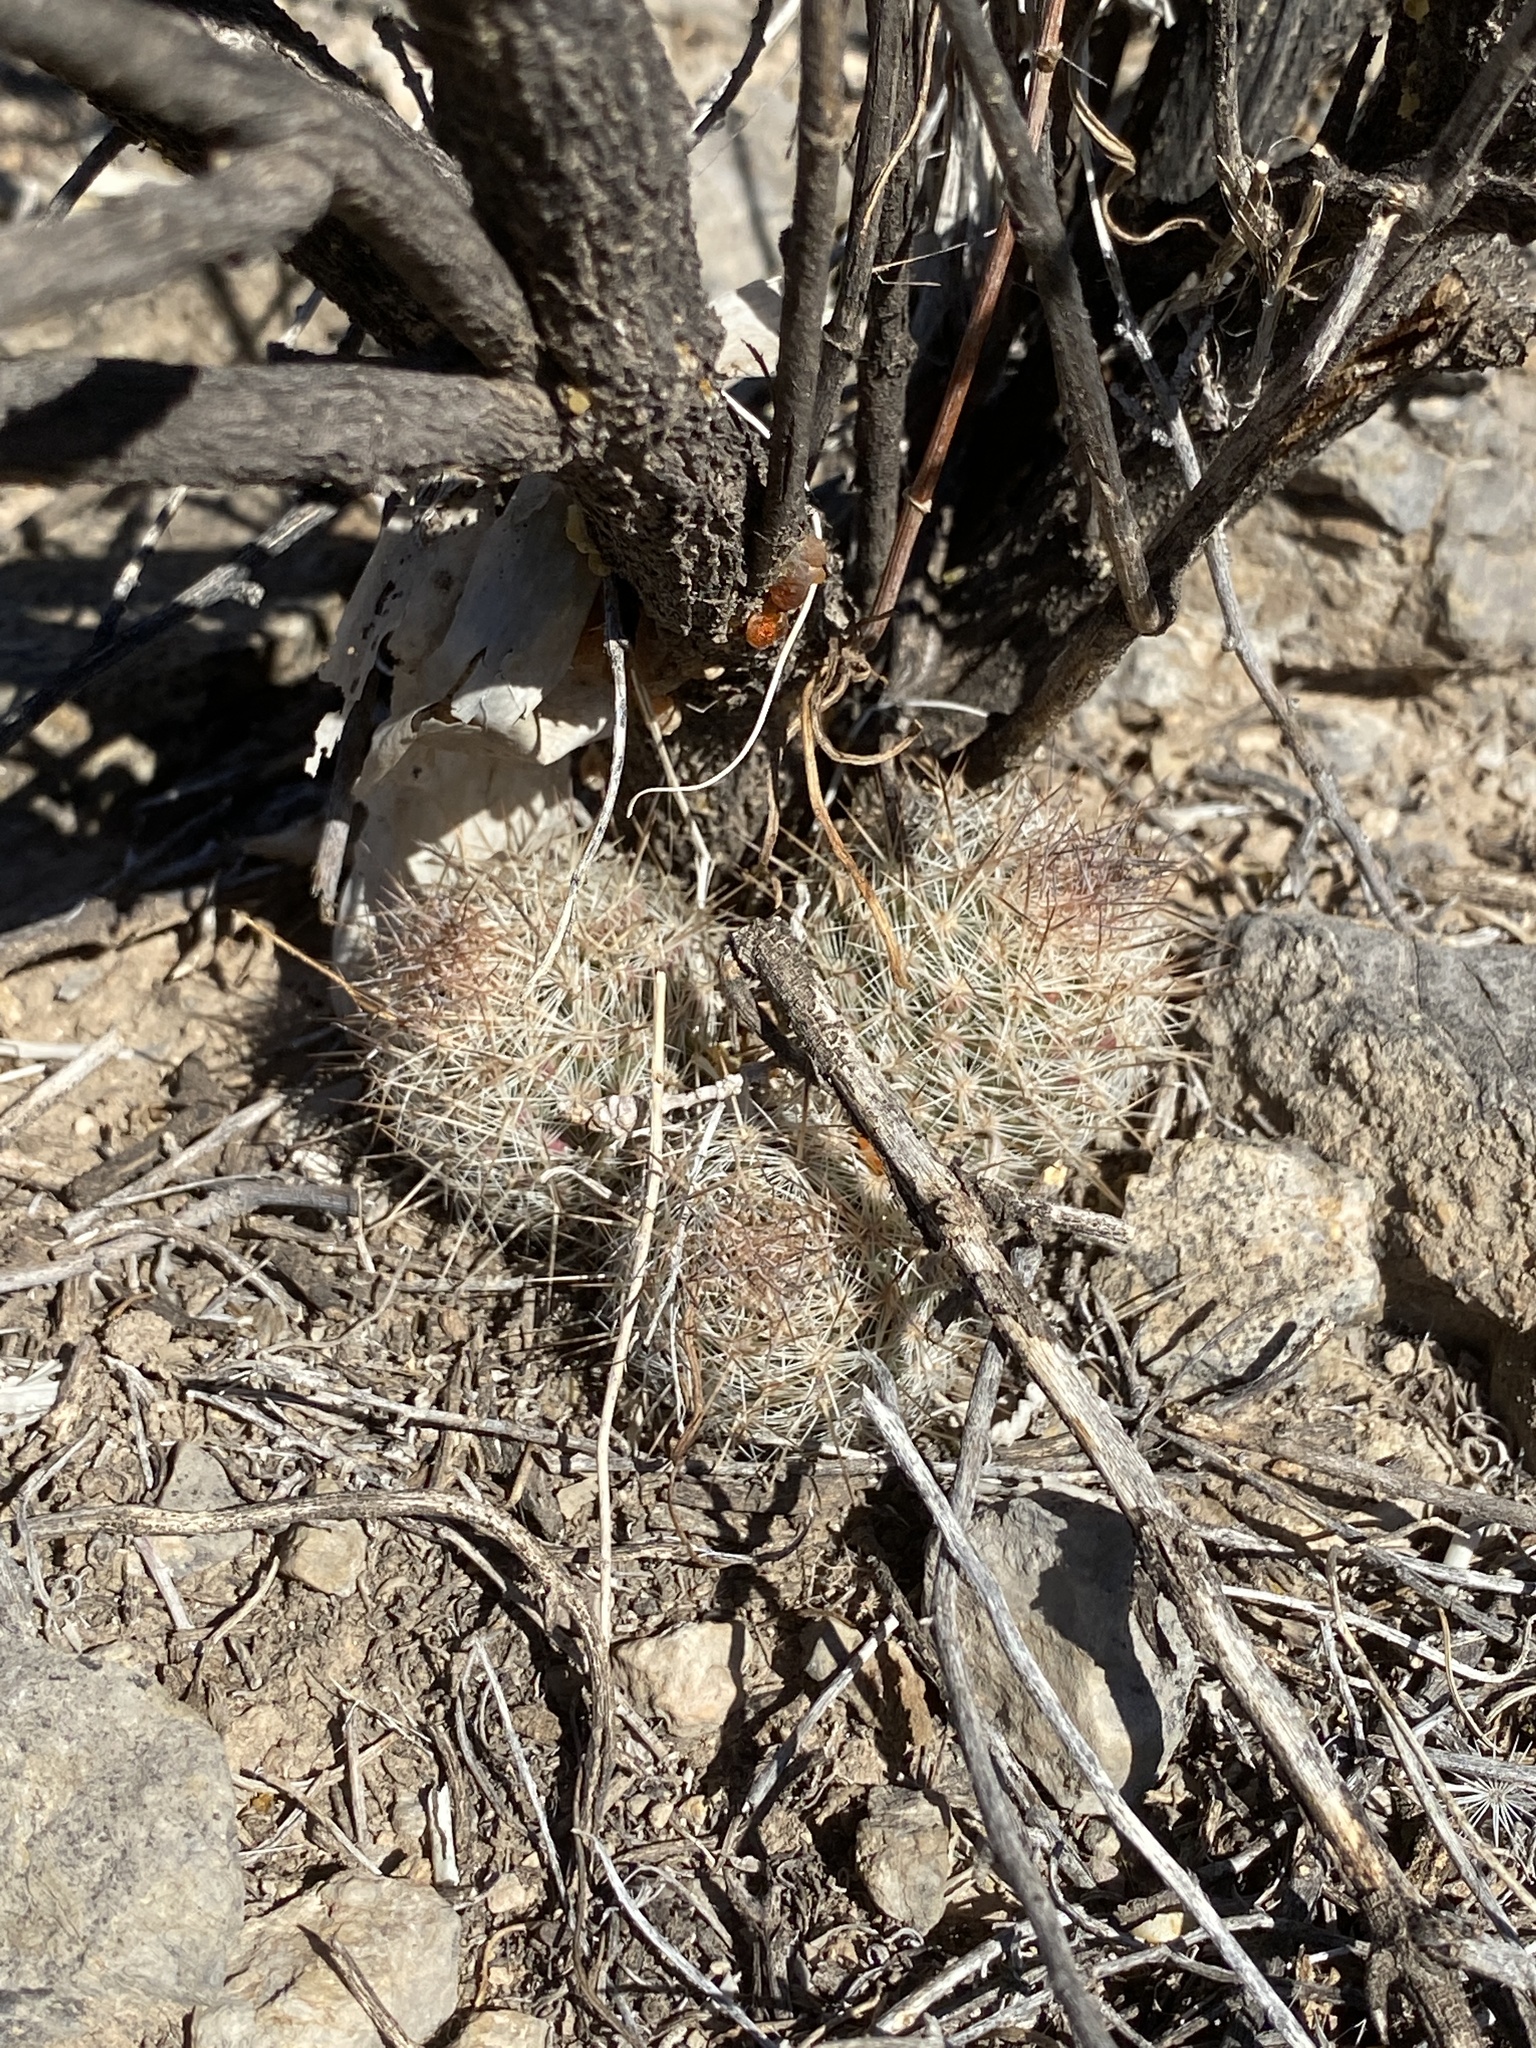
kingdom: Plantae
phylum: Tracheophyta
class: Magnoliopsida
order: Caryophyllales
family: Cactaceae
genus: Pelecyphora
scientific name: Pelecyphora tuberculosa
